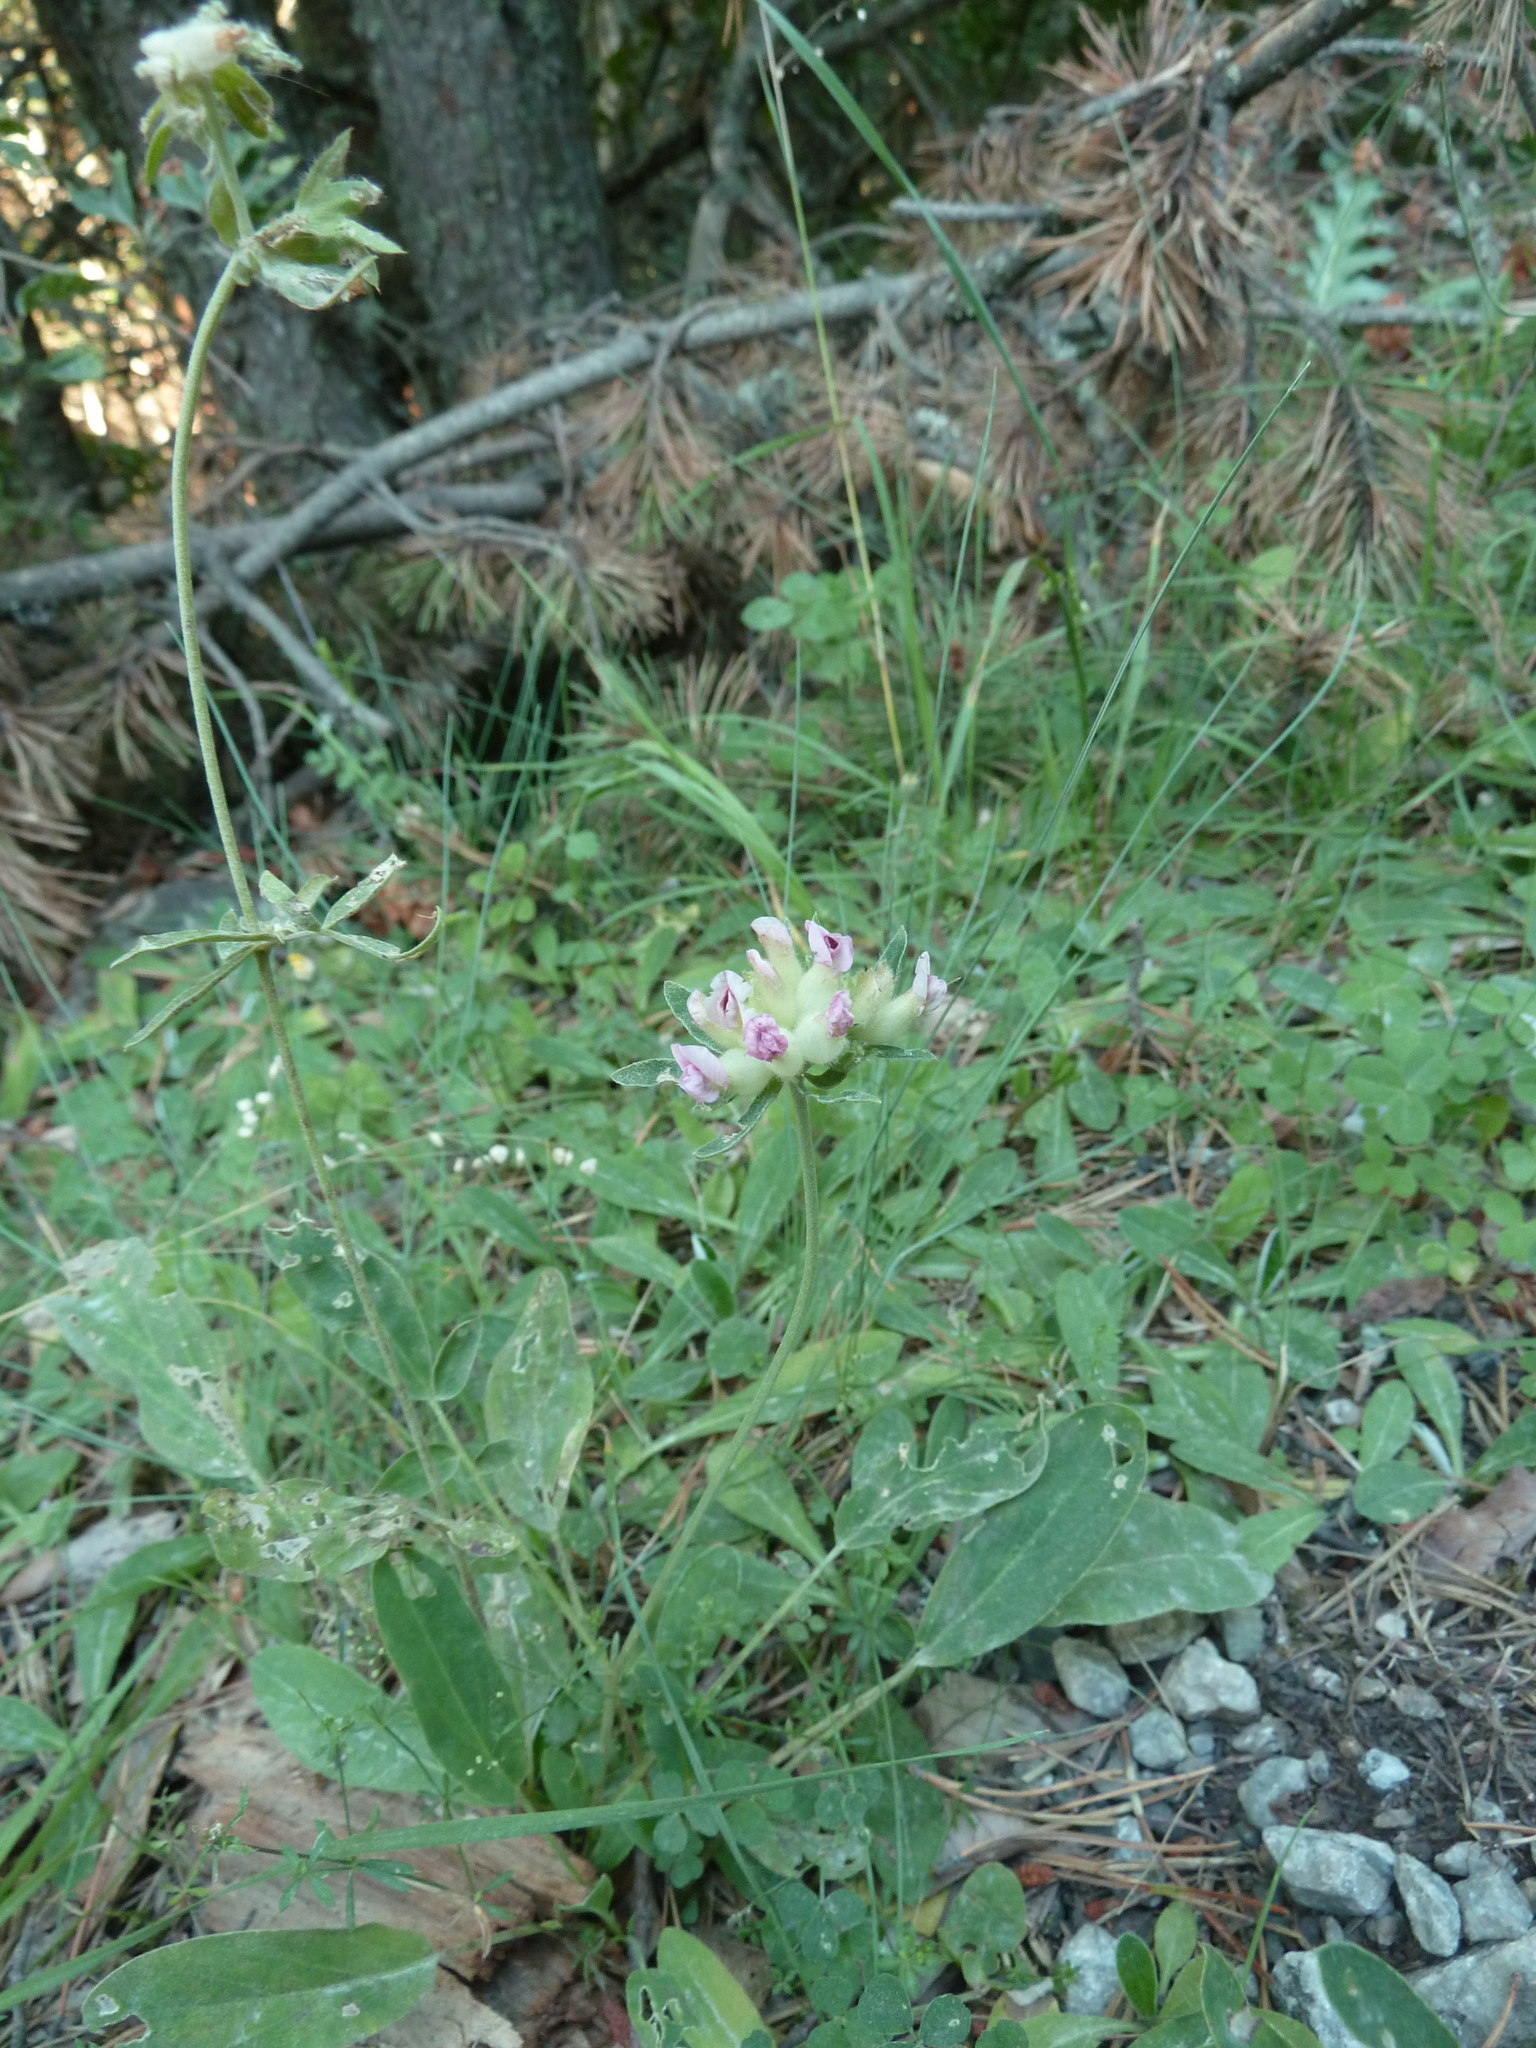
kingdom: Plantae
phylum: Tracheophyta
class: Magnoliopsida
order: Fabales
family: Fabaceae
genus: Anthyllis
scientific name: Anthyllis vulneraria
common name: Kidney vetch
